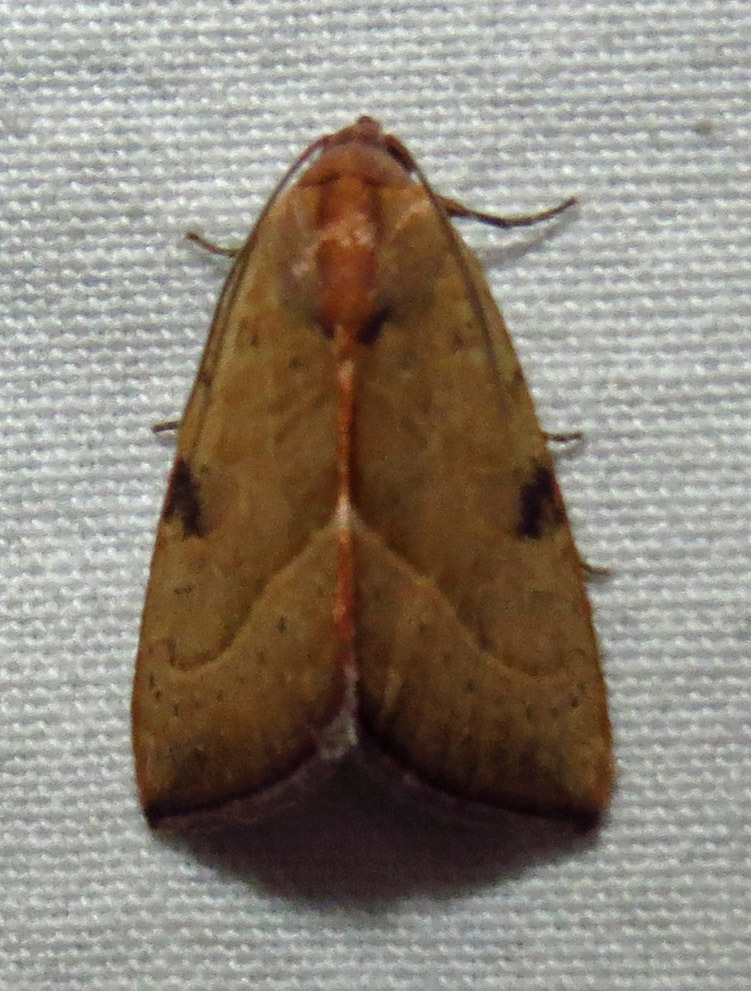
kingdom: Animalia
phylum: Arthropoda
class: Insecta
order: Lepidoptera
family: Noctuidae
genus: Galgula
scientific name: Galgula partita
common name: Wedgeling
